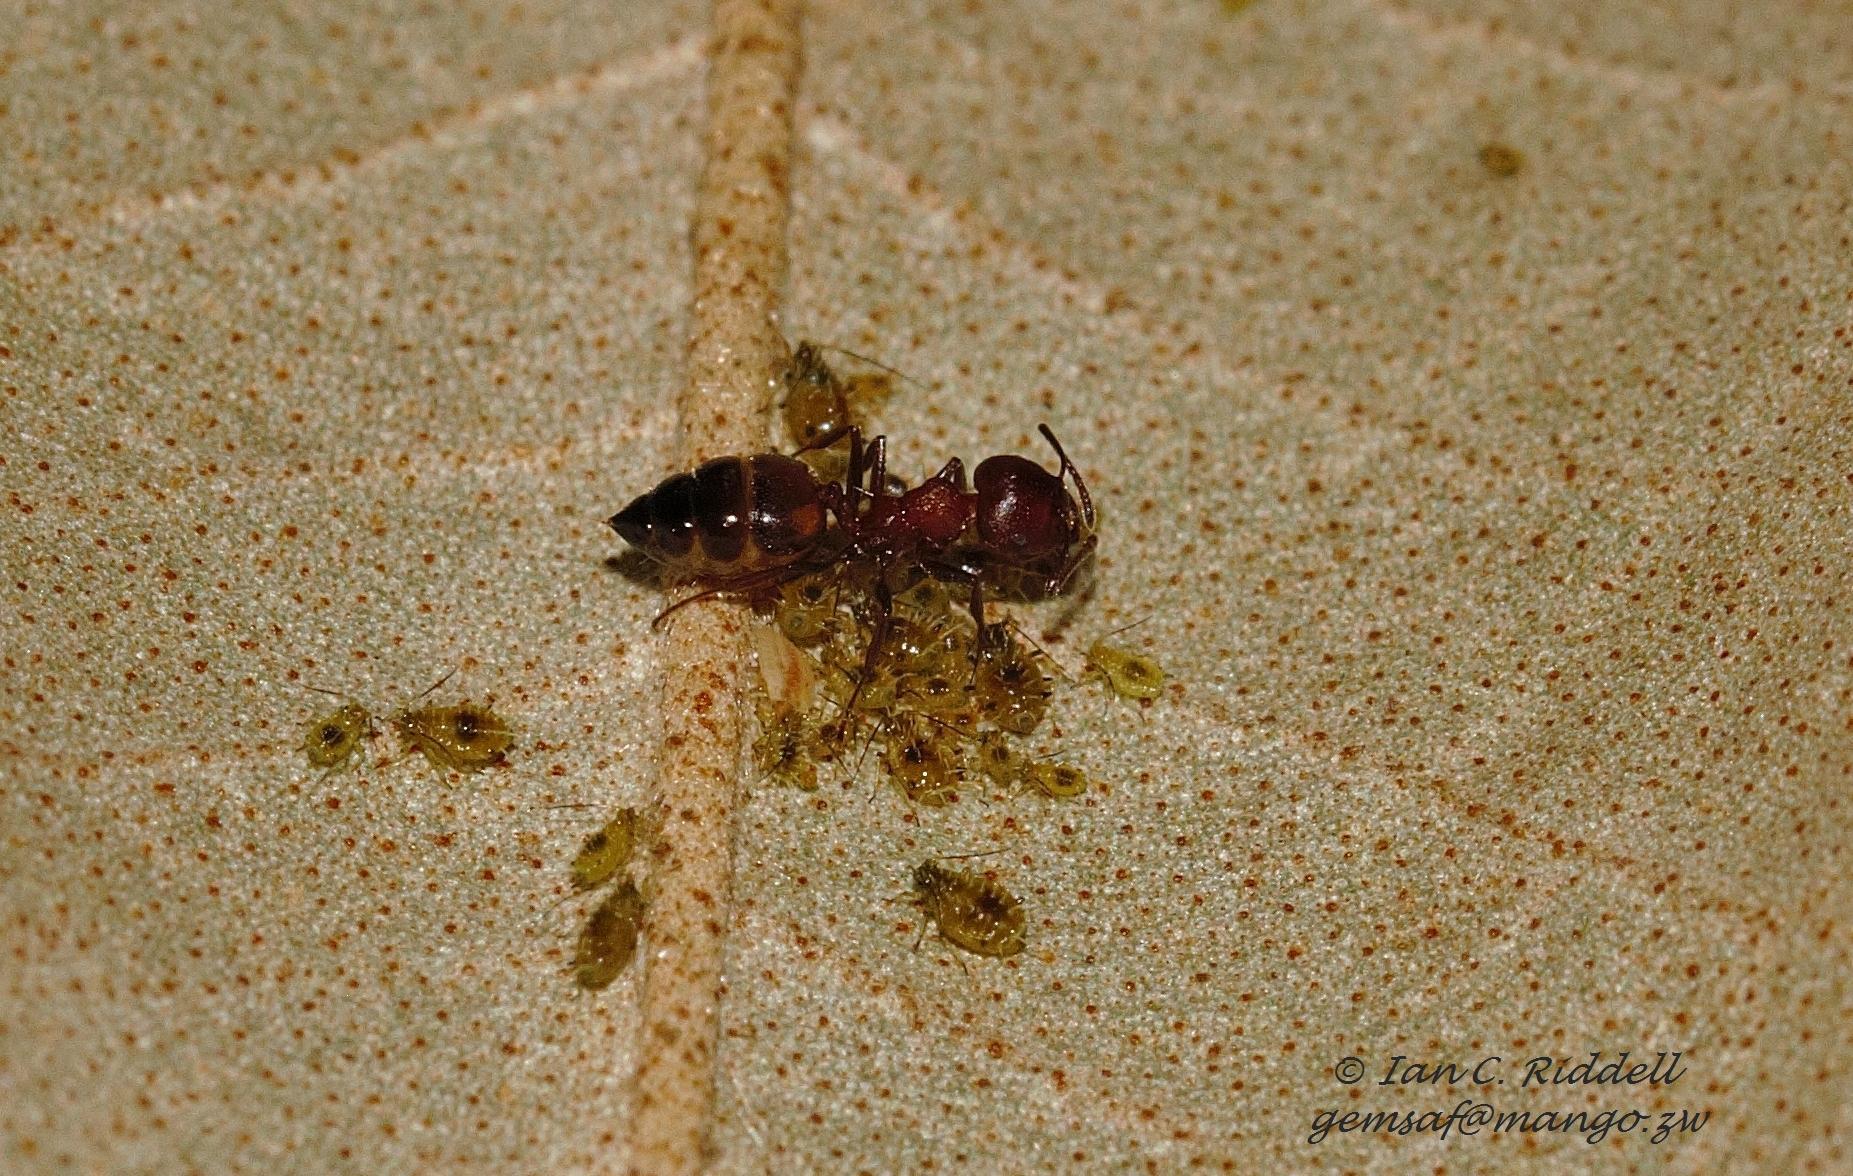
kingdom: Animalia
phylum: Arthropoda
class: Insecta
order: Hymenoptera
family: Formicidae
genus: Crematogaster
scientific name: Crematogaster castanea
